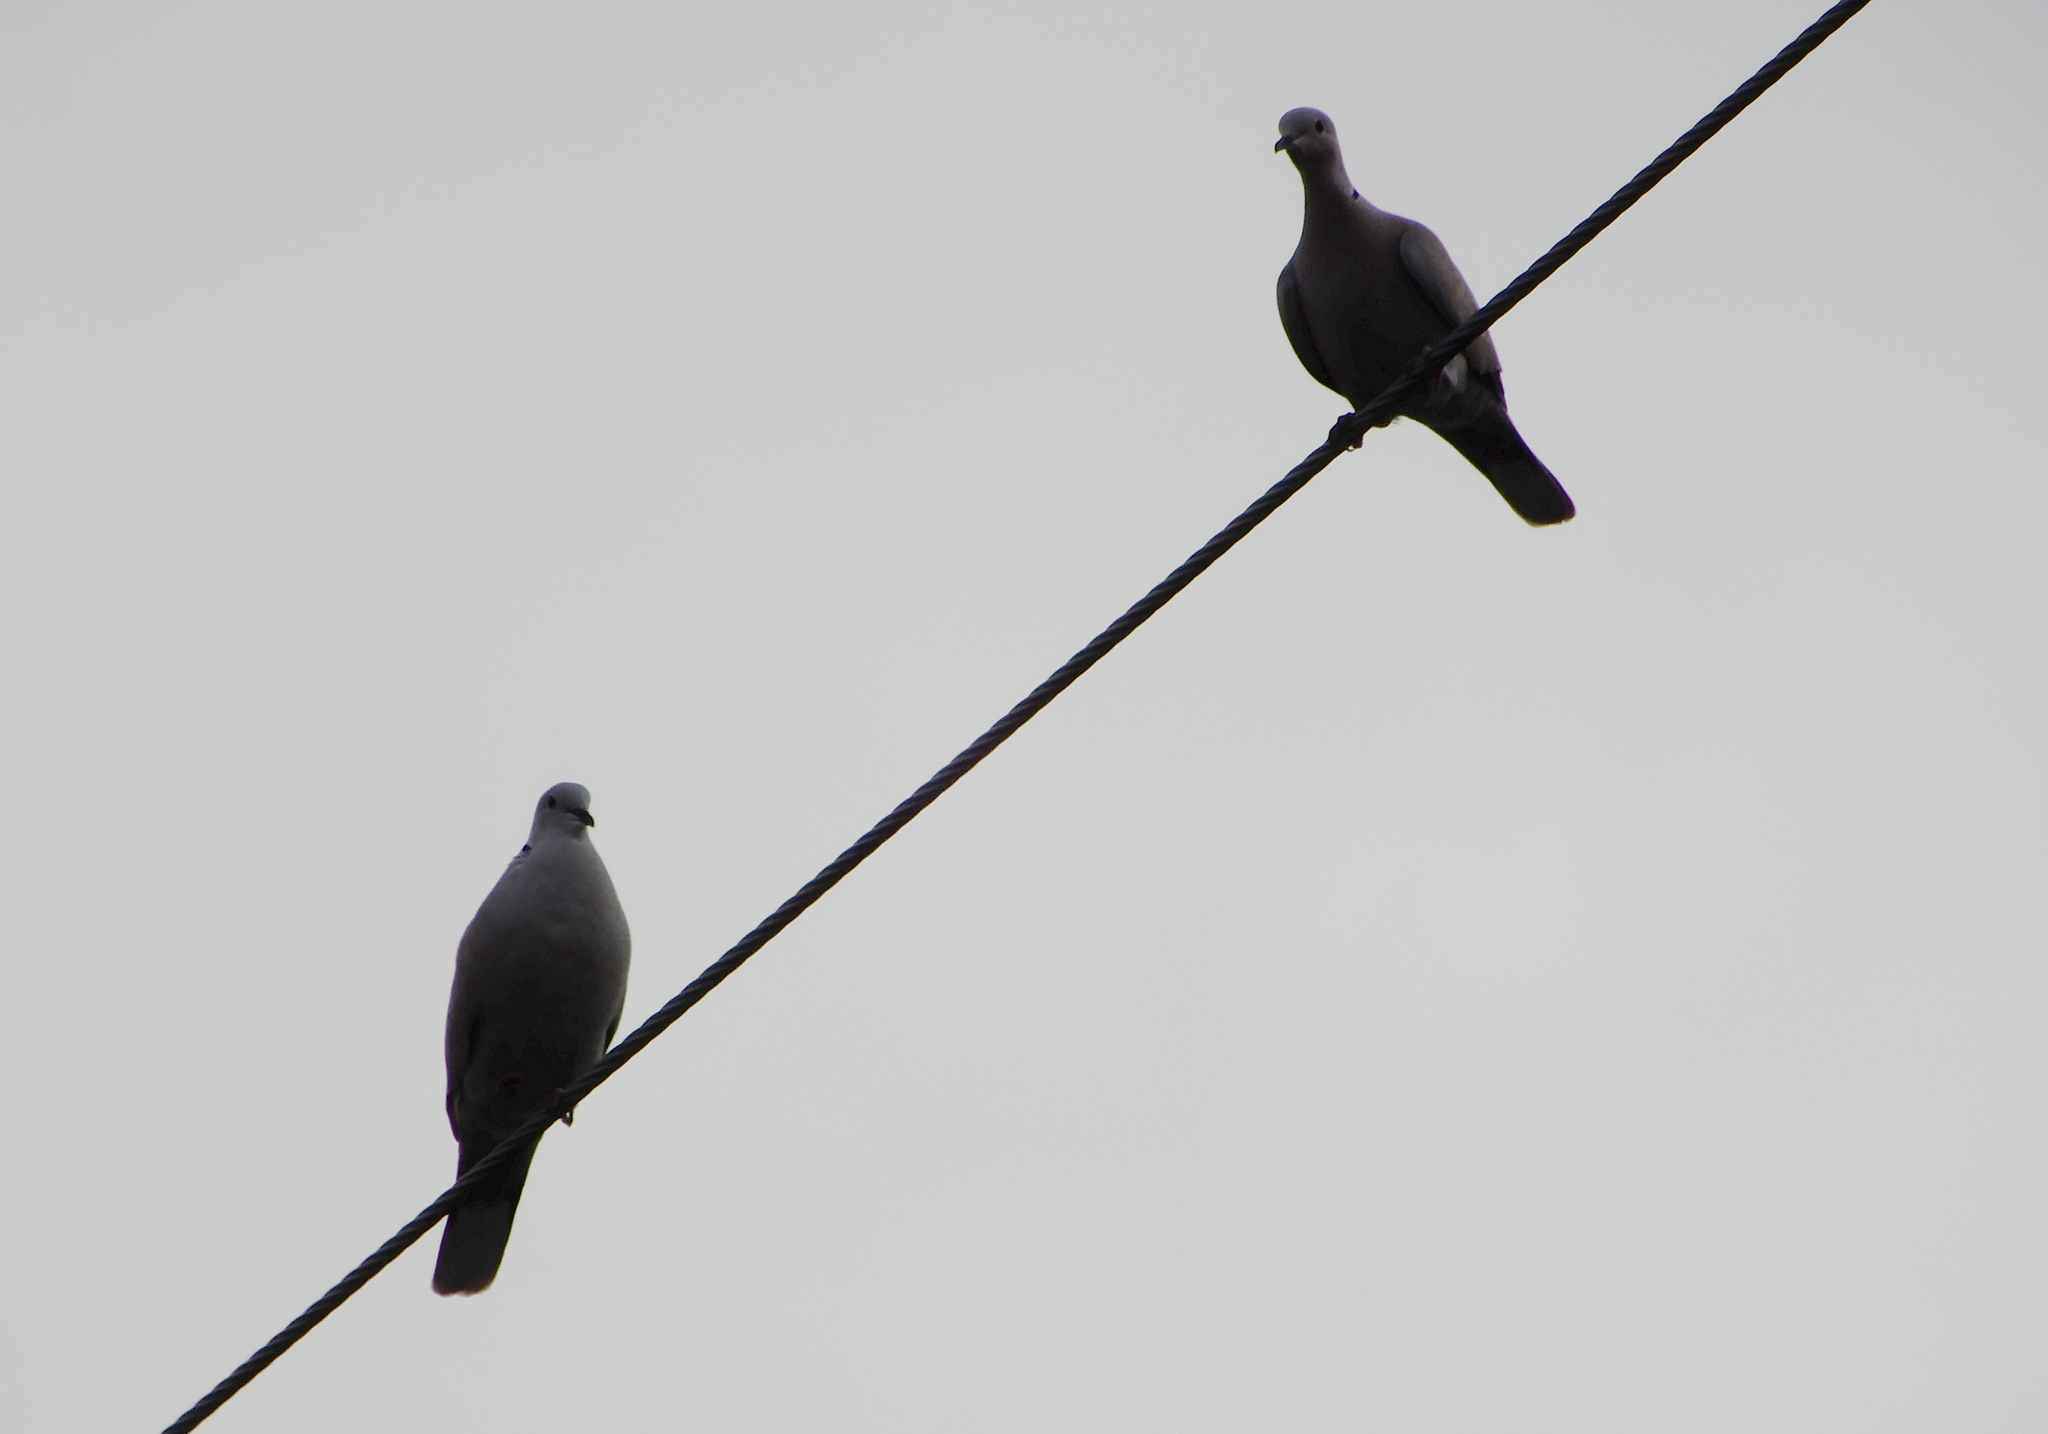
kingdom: Animalia
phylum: Chordata
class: Aves
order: Columbiformes
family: Columbidae
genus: Streptopelia
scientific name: Streptopelia decaocto
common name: Eurasian collared dove
